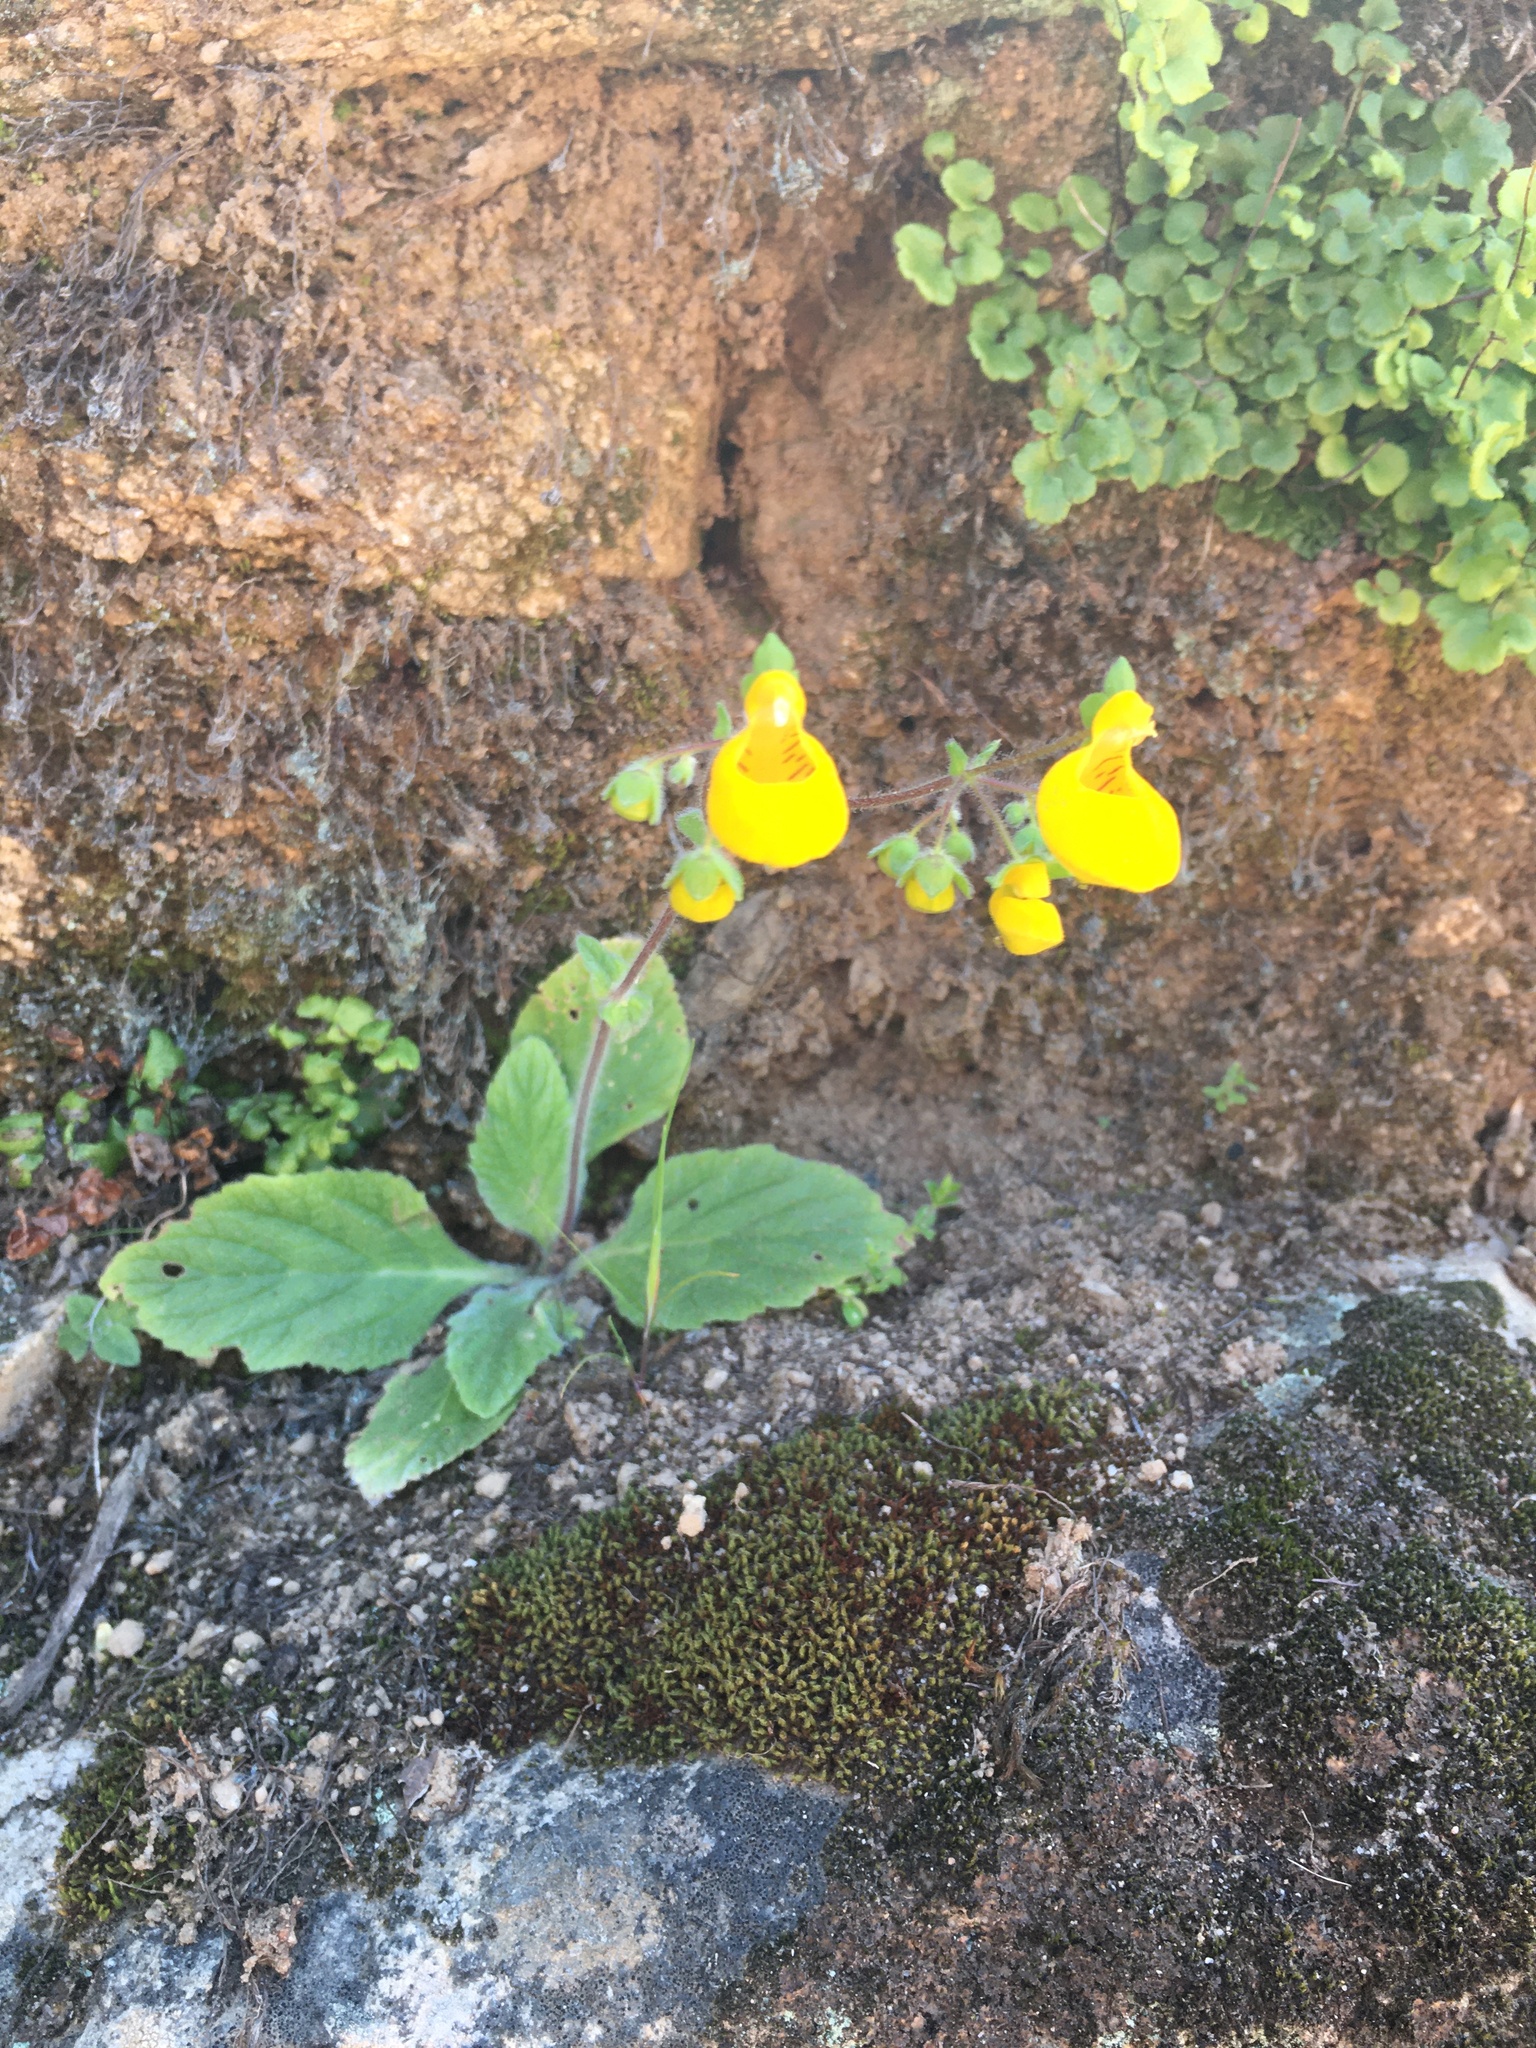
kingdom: Plantae
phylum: Tracheophyta
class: Magnoliopsida
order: Lamiales
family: Calceolariaceae
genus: Calceolaria
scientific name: Calceolaria corymbosa
